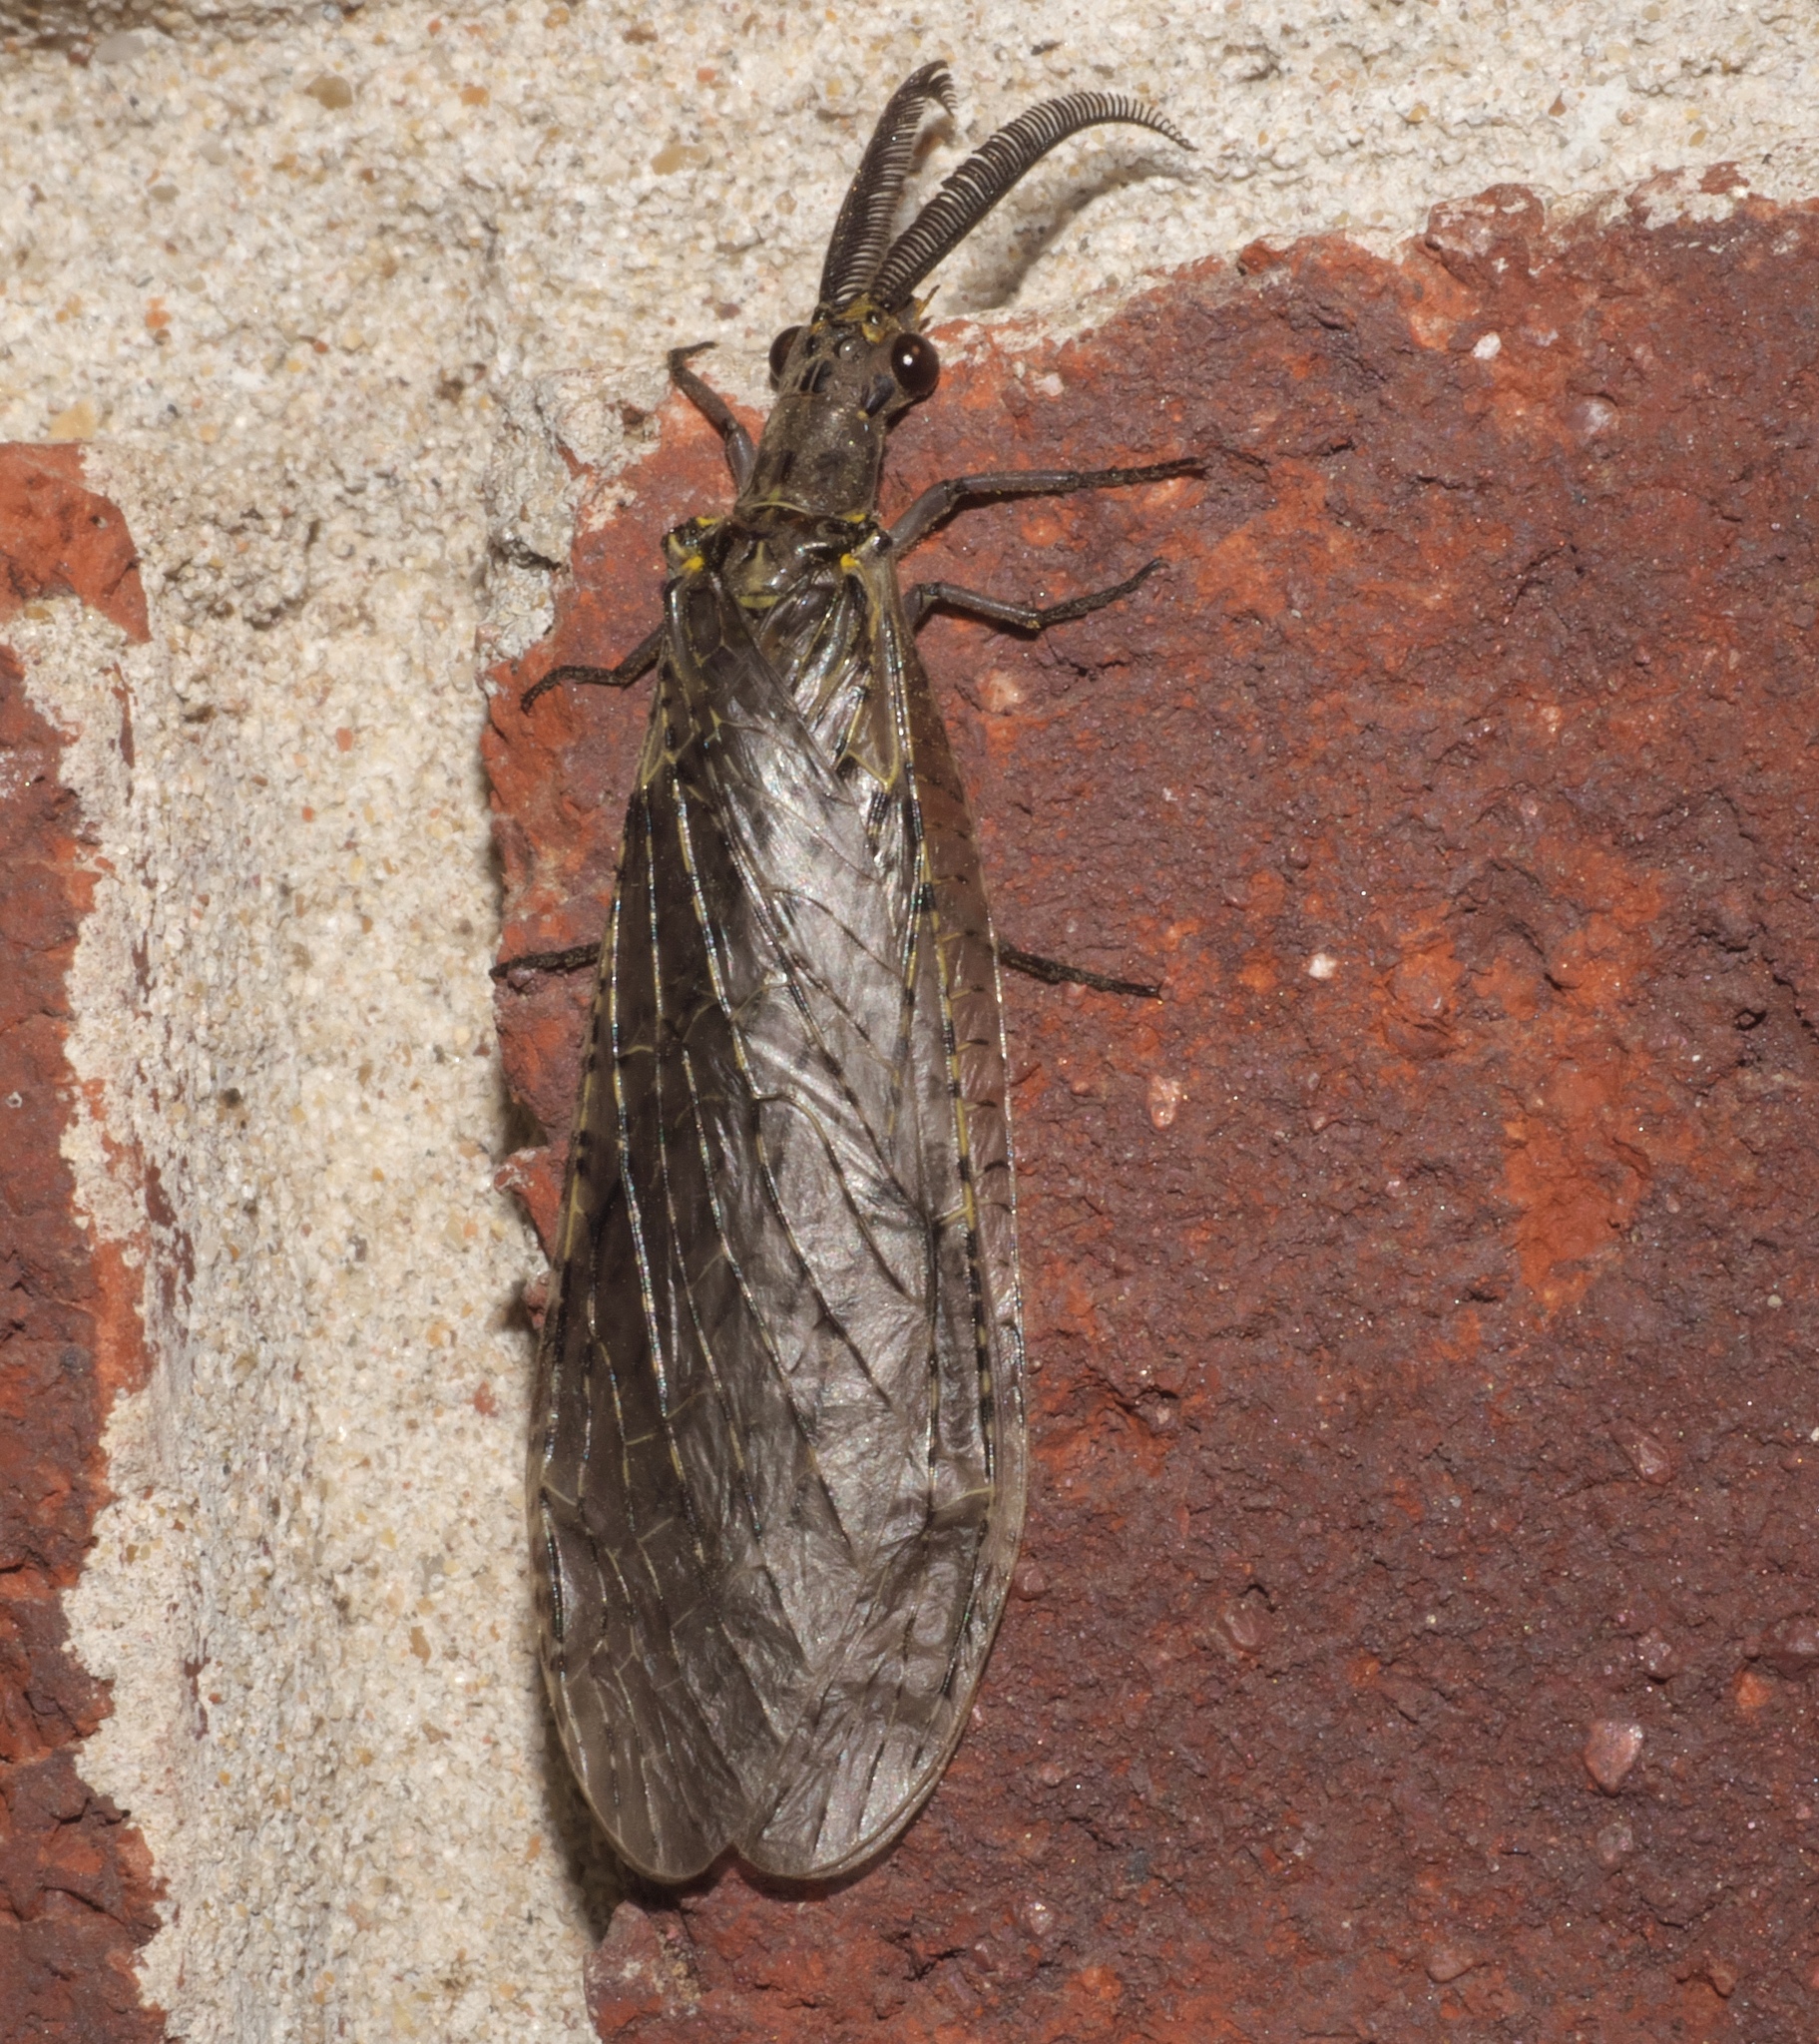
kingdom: Animalia
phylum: Arthropoda
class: Insecta
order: Megaloptera
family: Corydalidae
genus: Chauliodes
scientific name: Chauliodes rastricornis
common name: Spring fishfly
